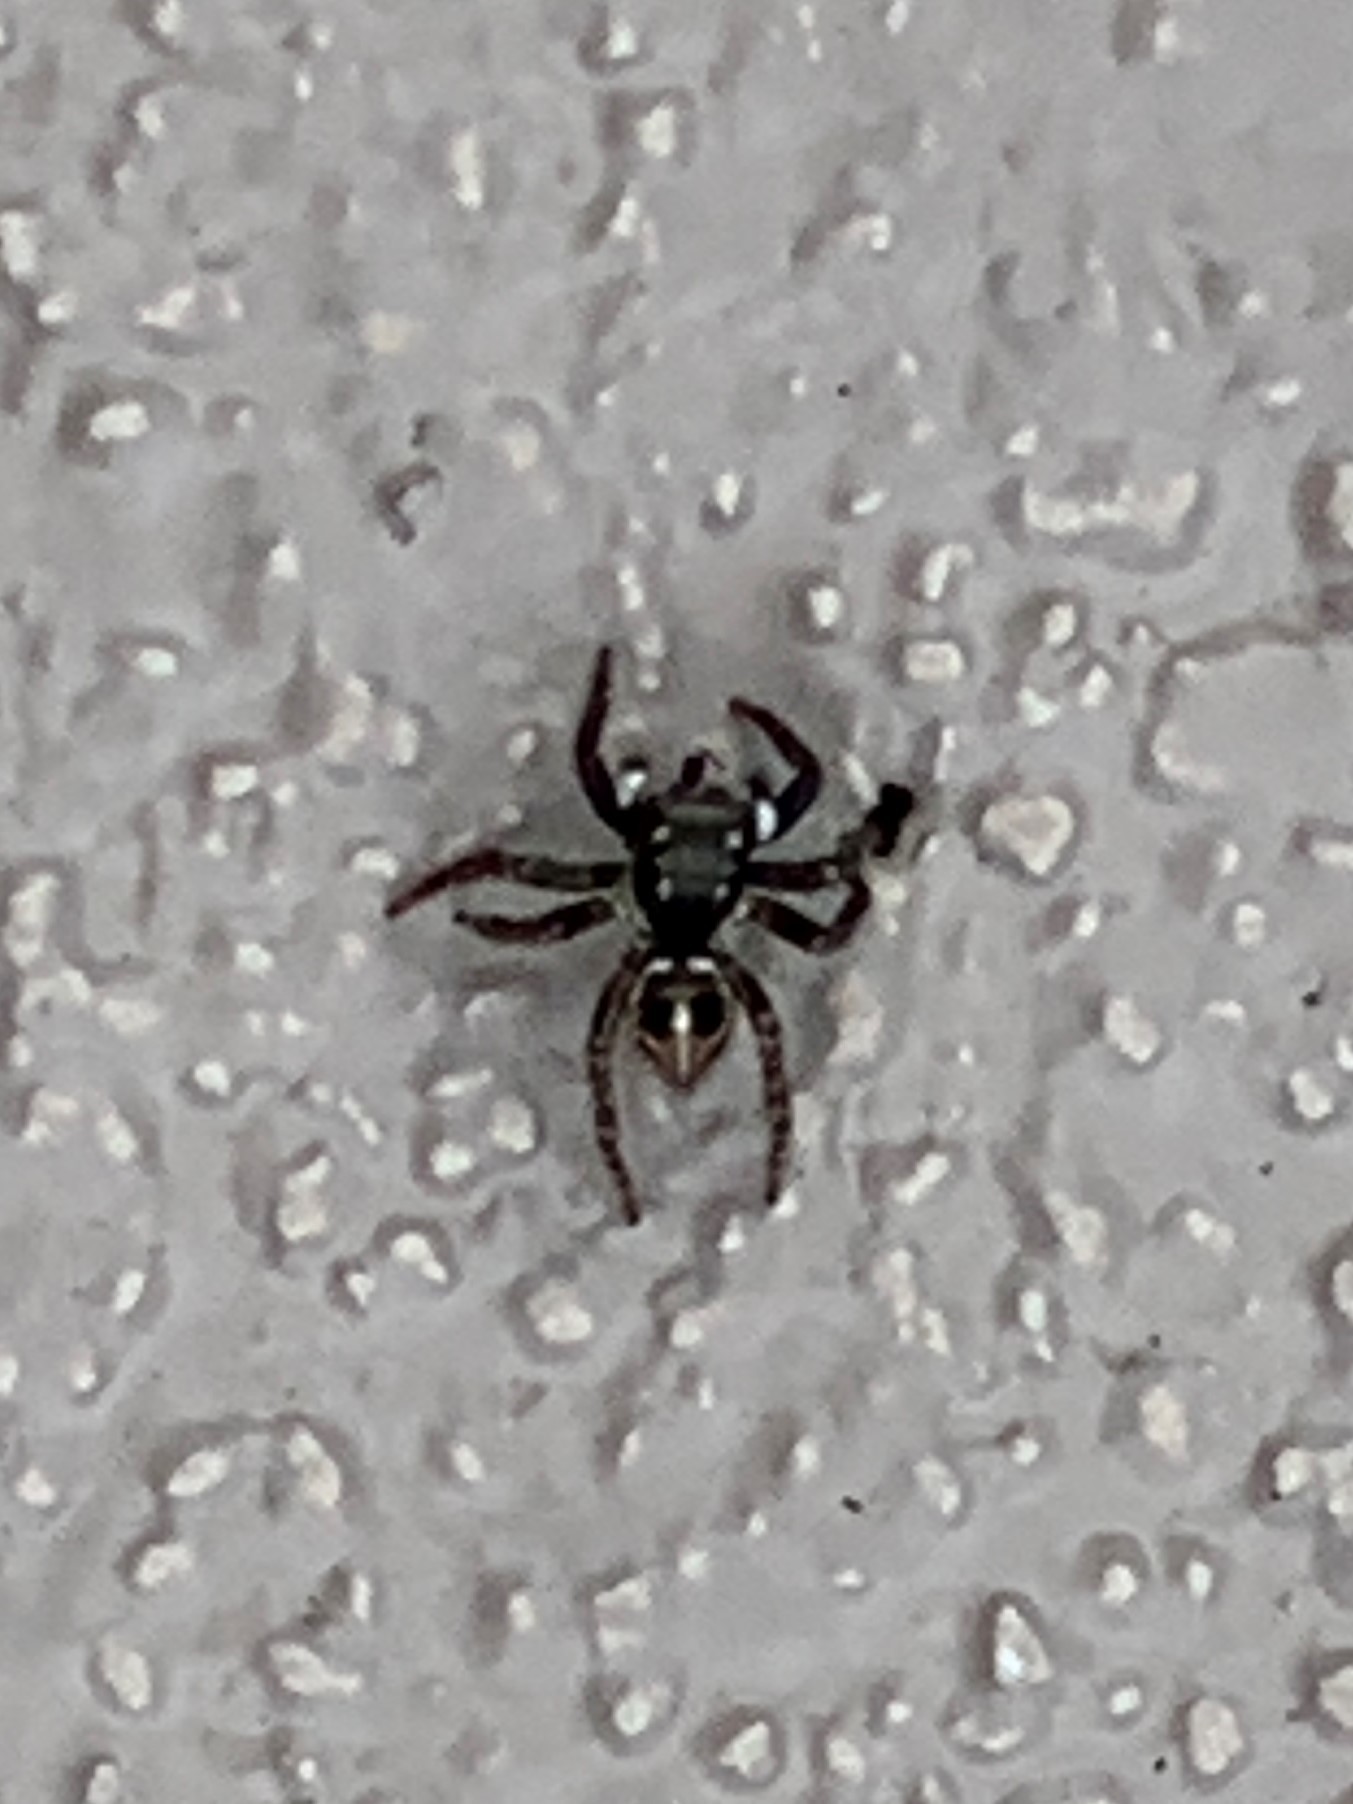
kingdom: Animalia
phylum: Arthropoda
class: Arachnida
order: Araneae
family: Salticidae
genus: Anasaitis
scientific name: Anasaitis canosa
